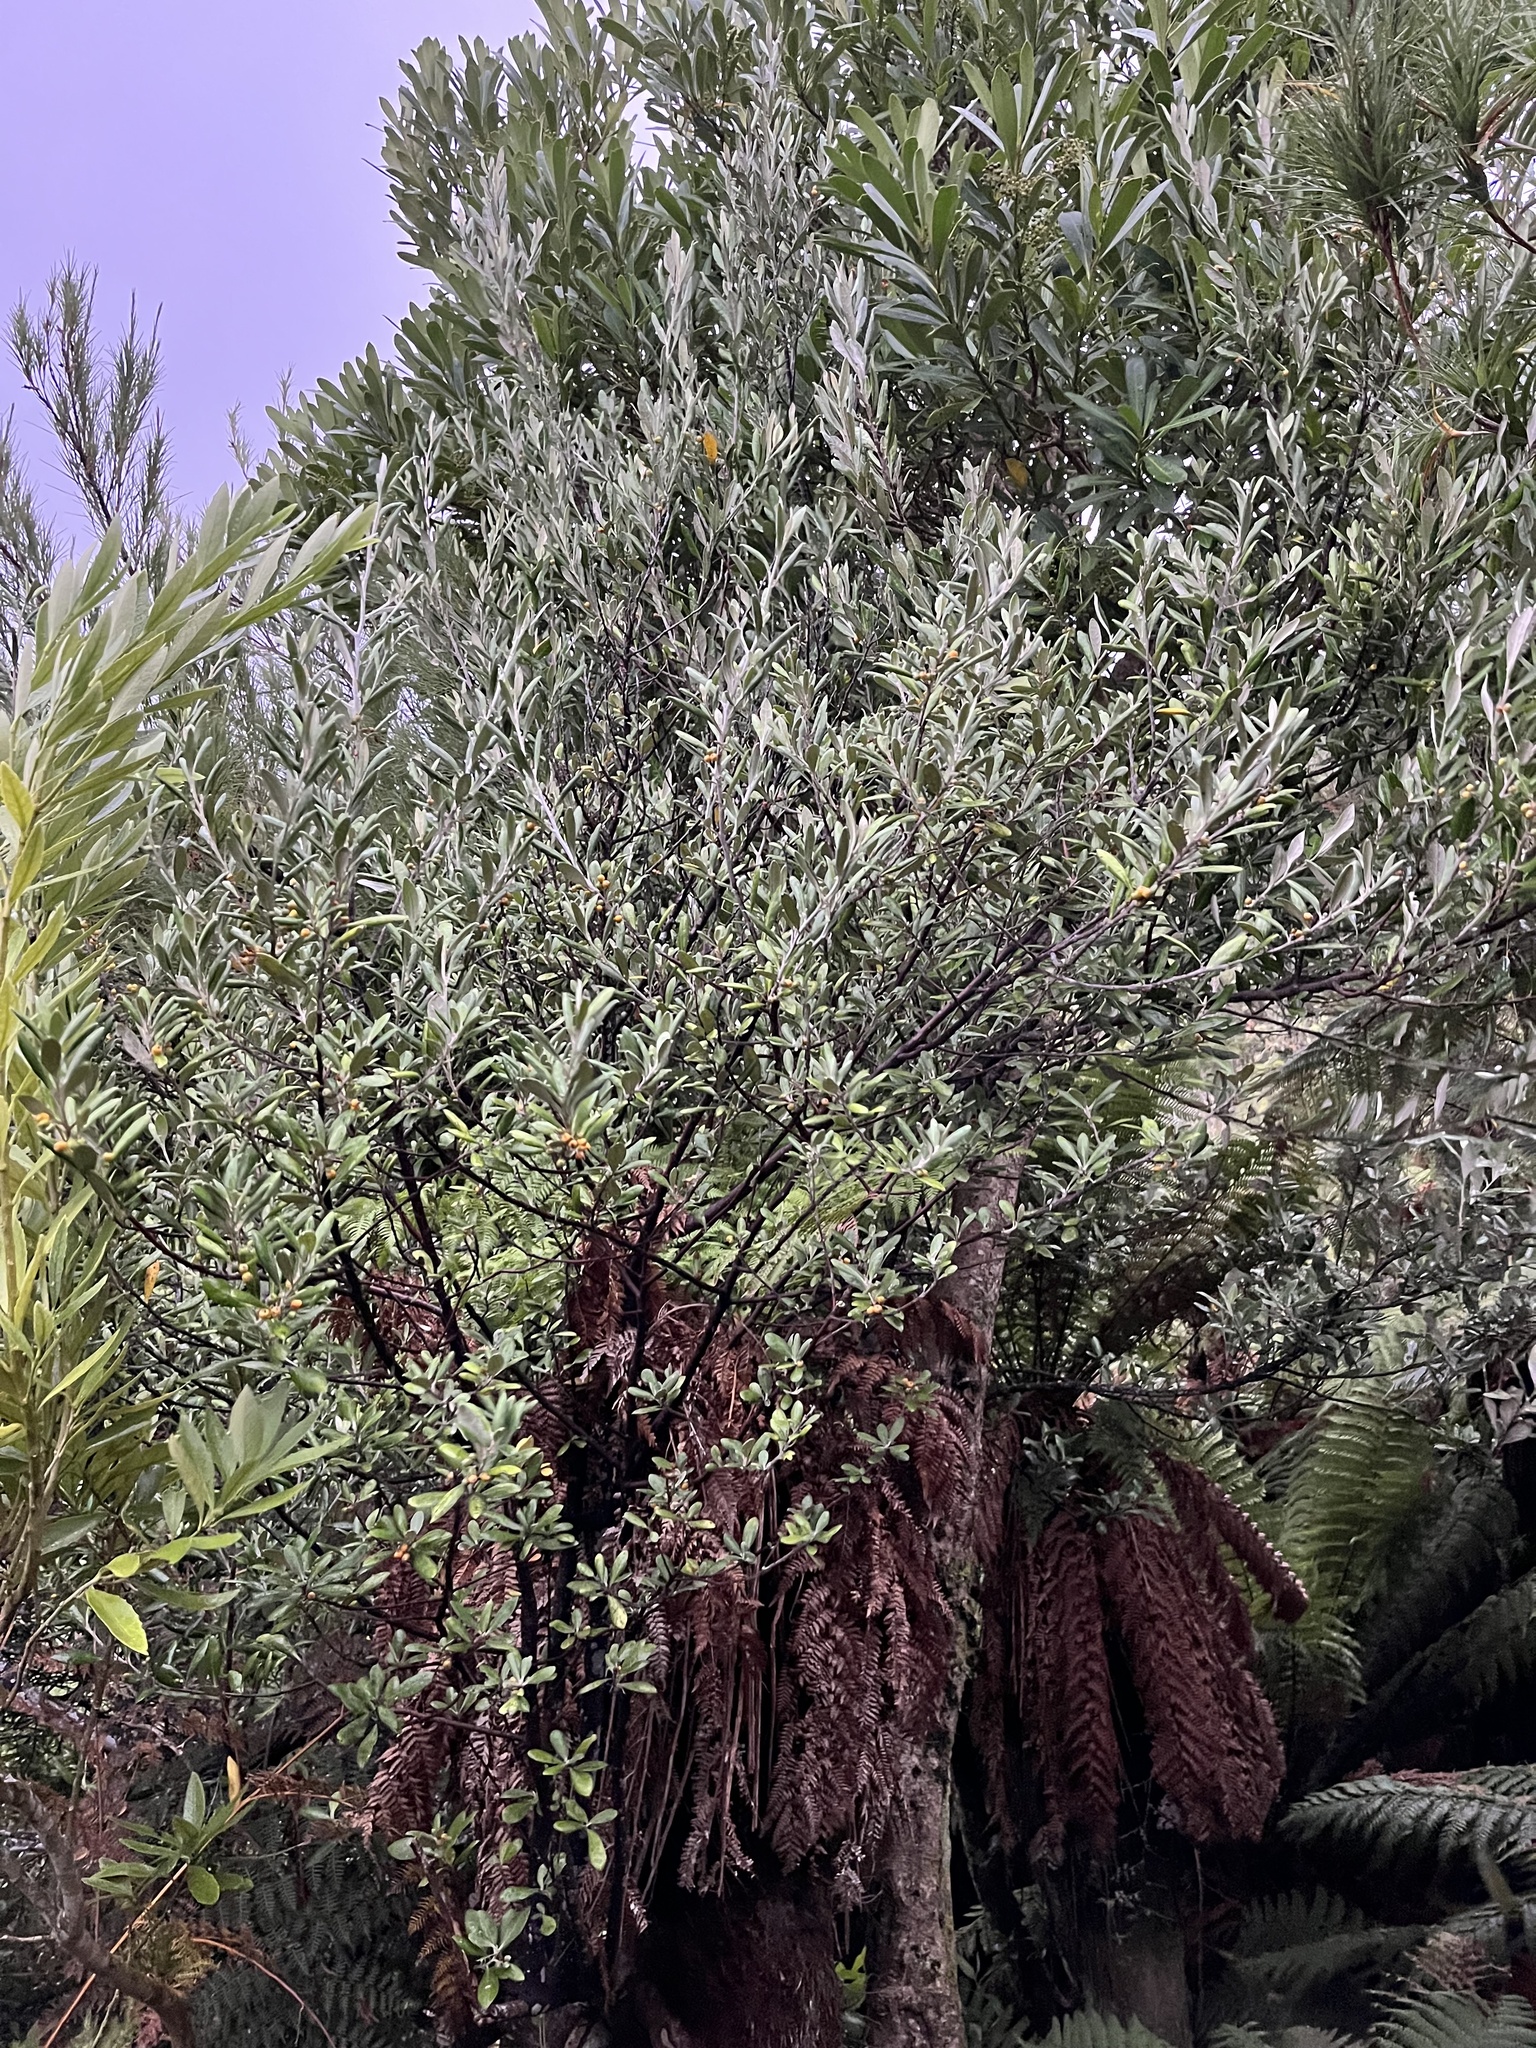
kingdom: Plantae
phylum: Tracheophyta
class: Magnoliopsida
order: Asterales
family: Argophyllaceae
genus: Corokia
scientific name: Corokia macrocarpa
